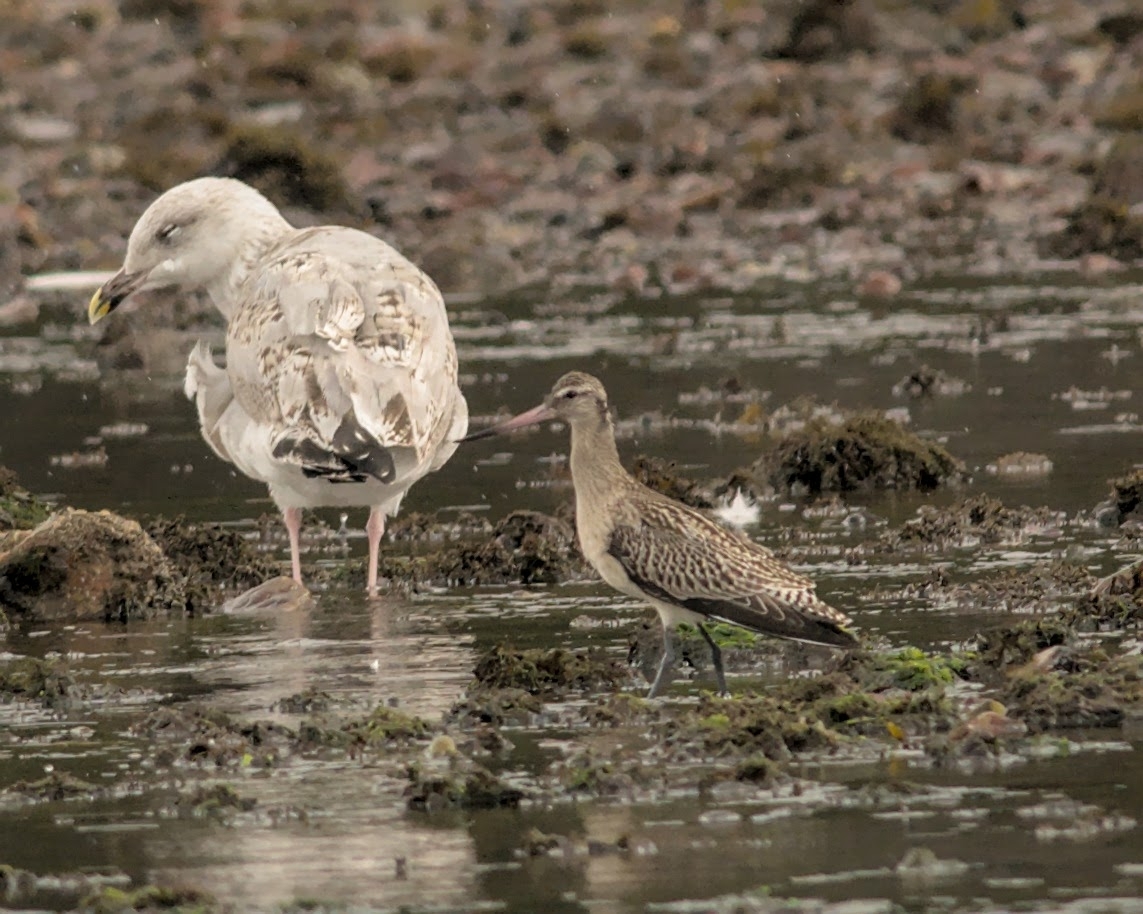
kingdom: Animalia
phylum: Chordata
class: Aves
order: Charadriiformes
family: Scolopacidae
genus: Limosa
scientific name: Limosa lapponica
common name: Bar-tailed godwit
